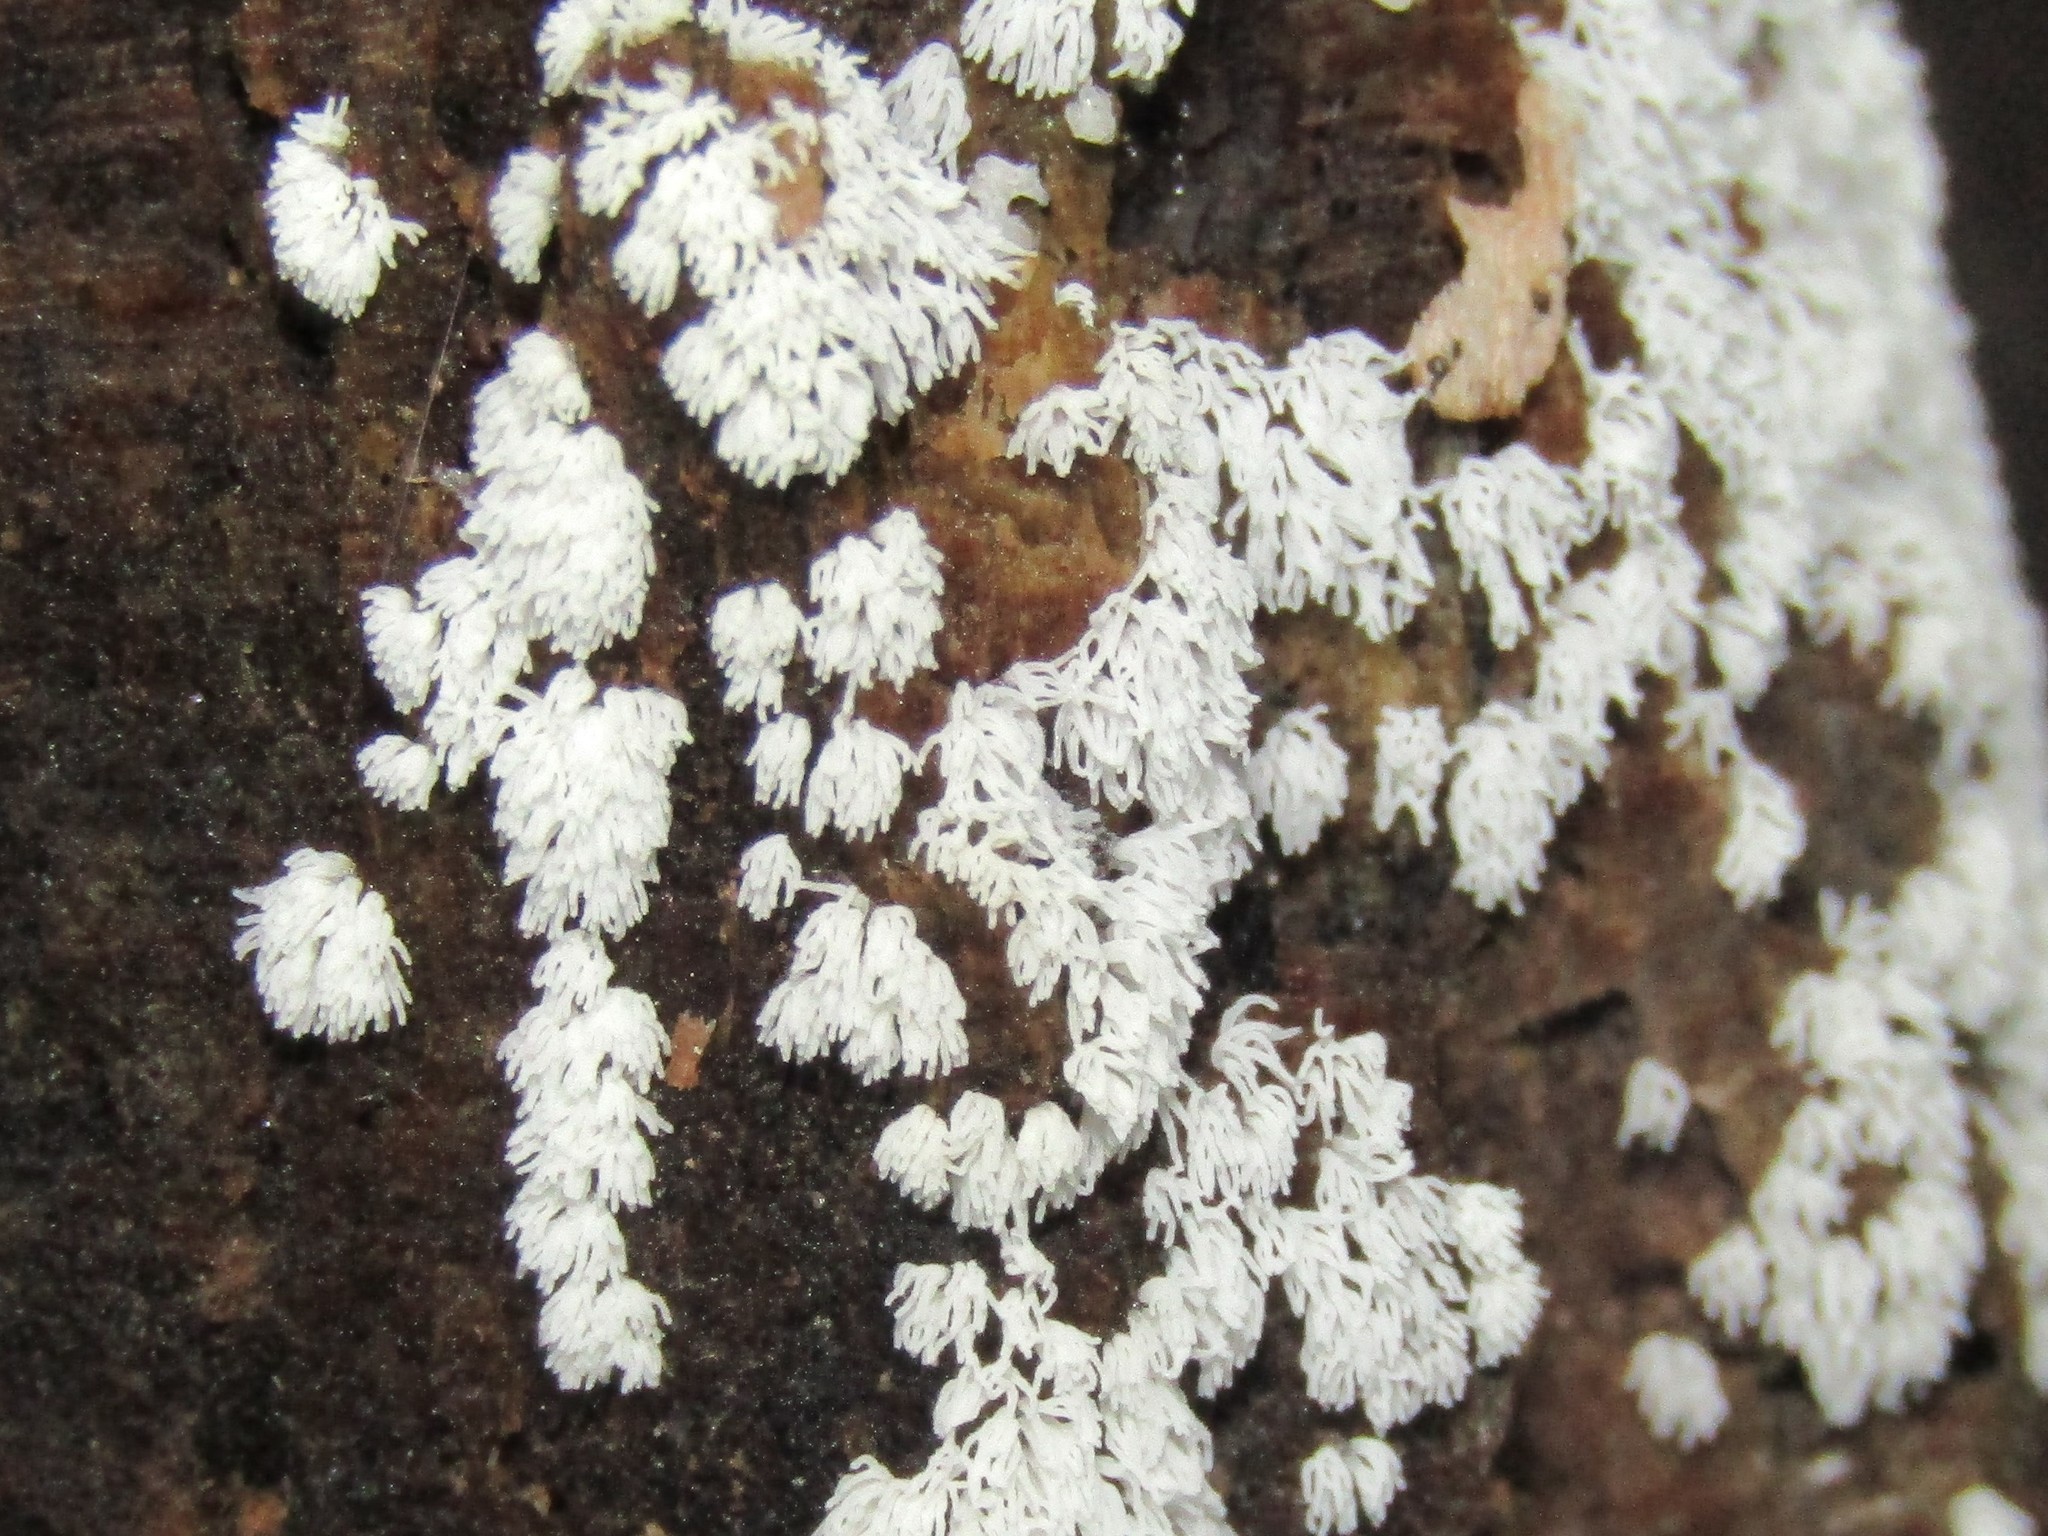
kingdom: Protozoa
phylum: Mycetozoa
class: Protosteliomycetes
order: Ceratiomyxales
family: Ceratiomyxaceae
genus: Ceratiomyxa
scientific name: Ceratiomyxa fruticulosa
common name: Honeycomb coral slime mold
